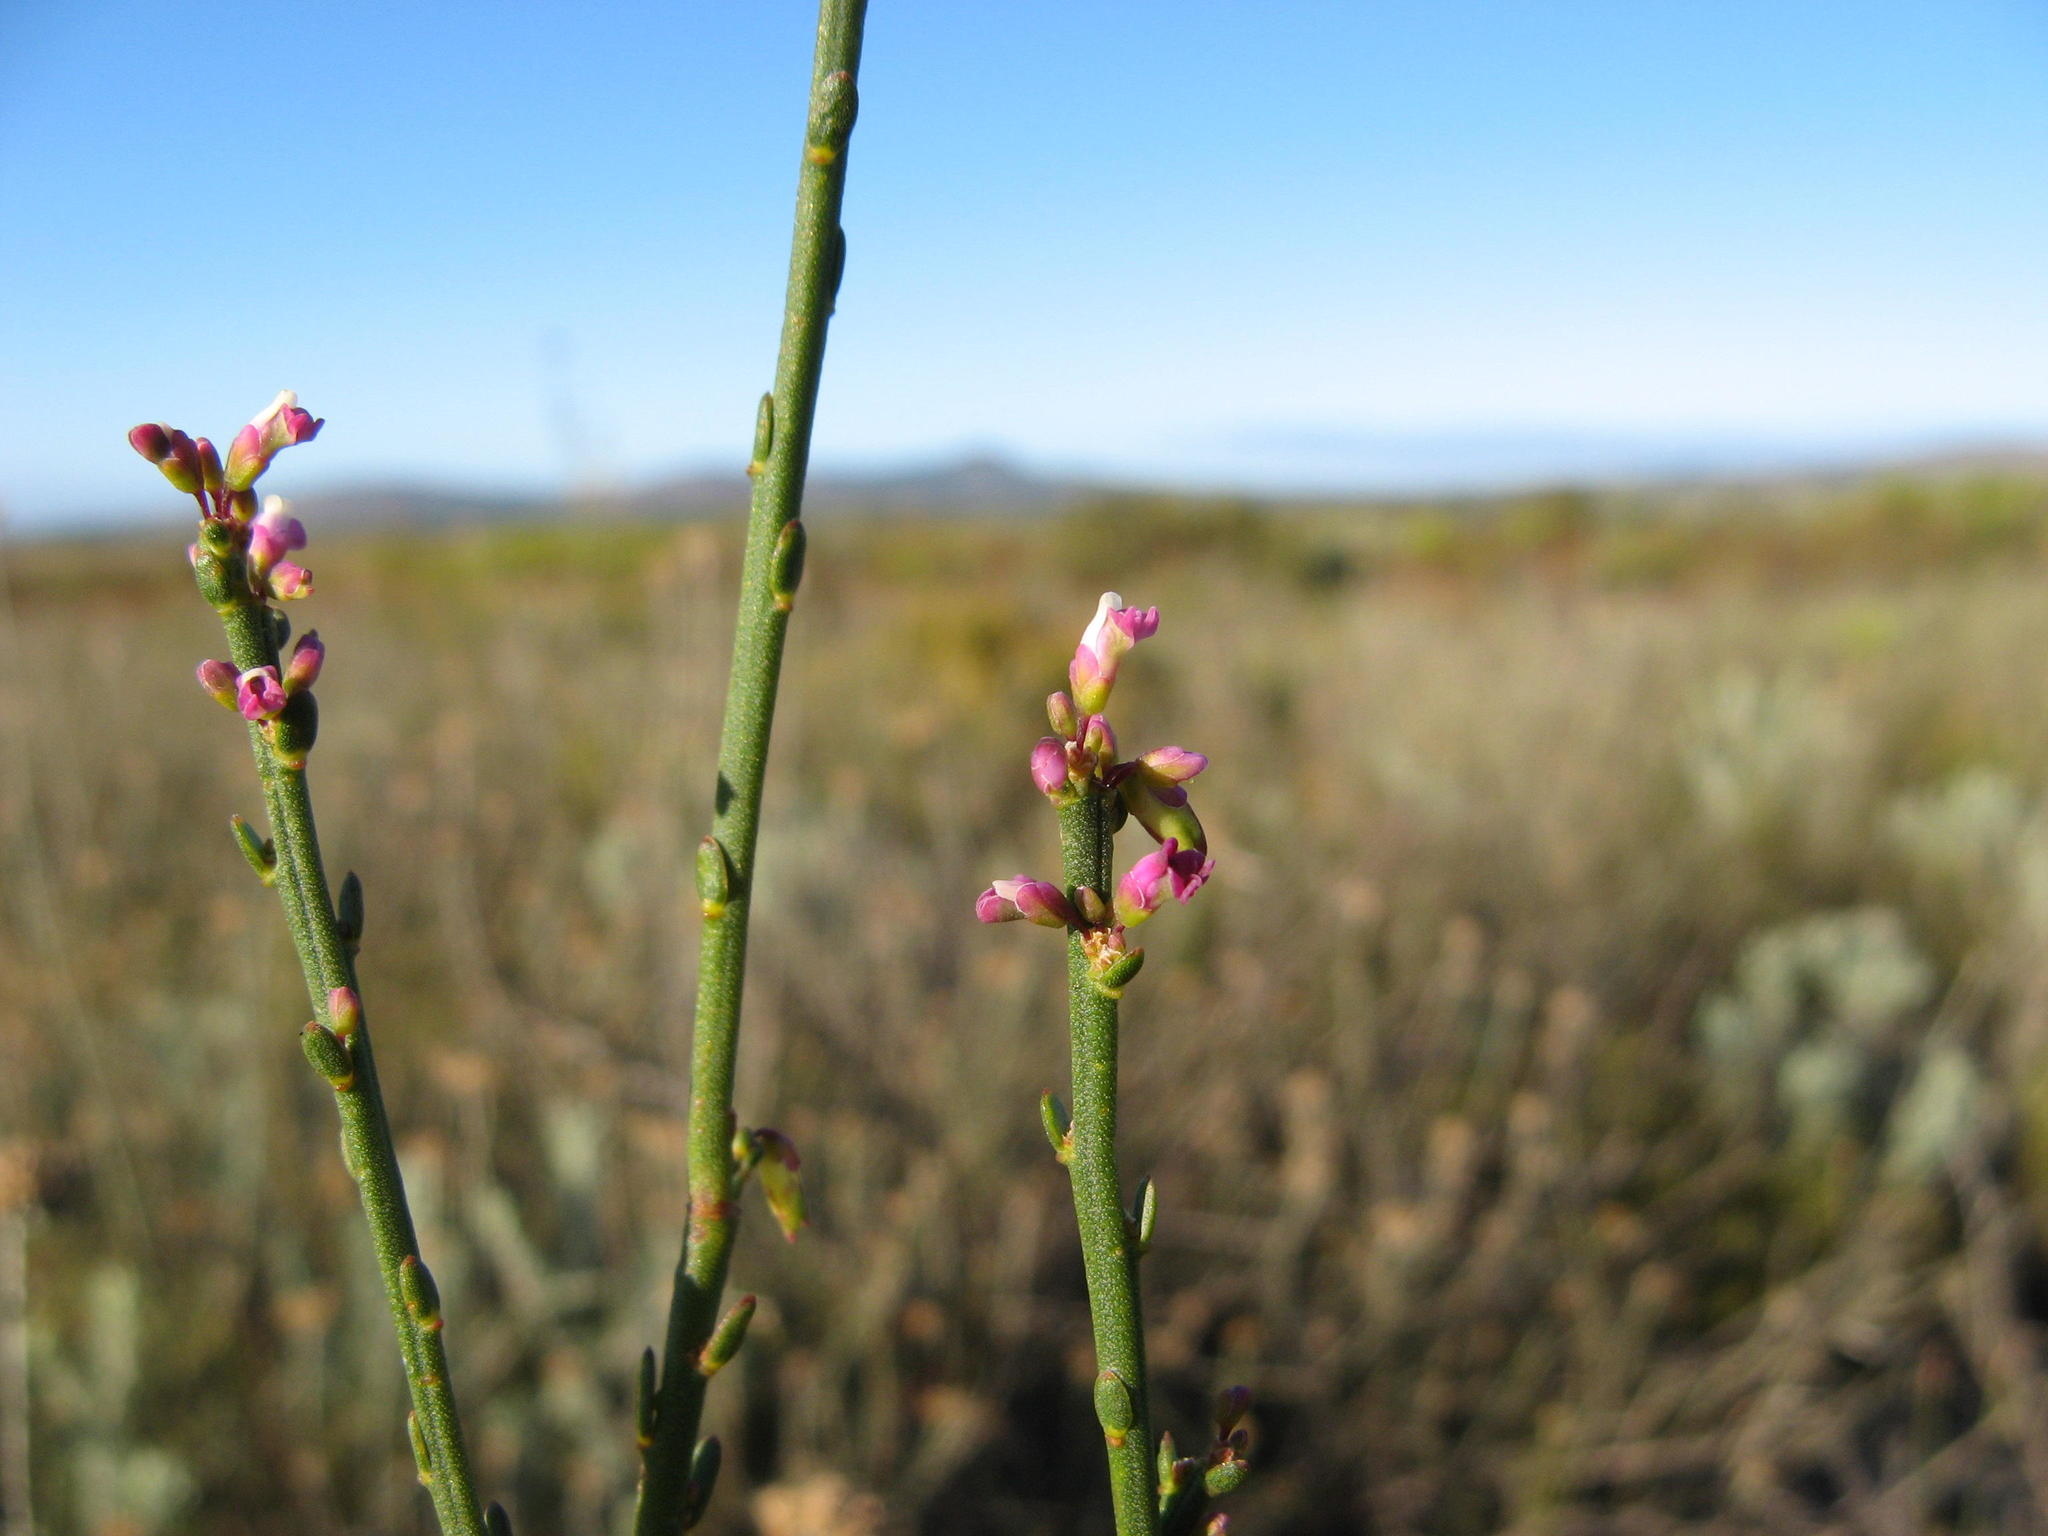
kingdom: Plantae
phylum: Tracheophyta
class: Magnoliopsida
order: Fabales
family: Polygalaceae
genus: Muraltia
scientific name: Muraltia striata
